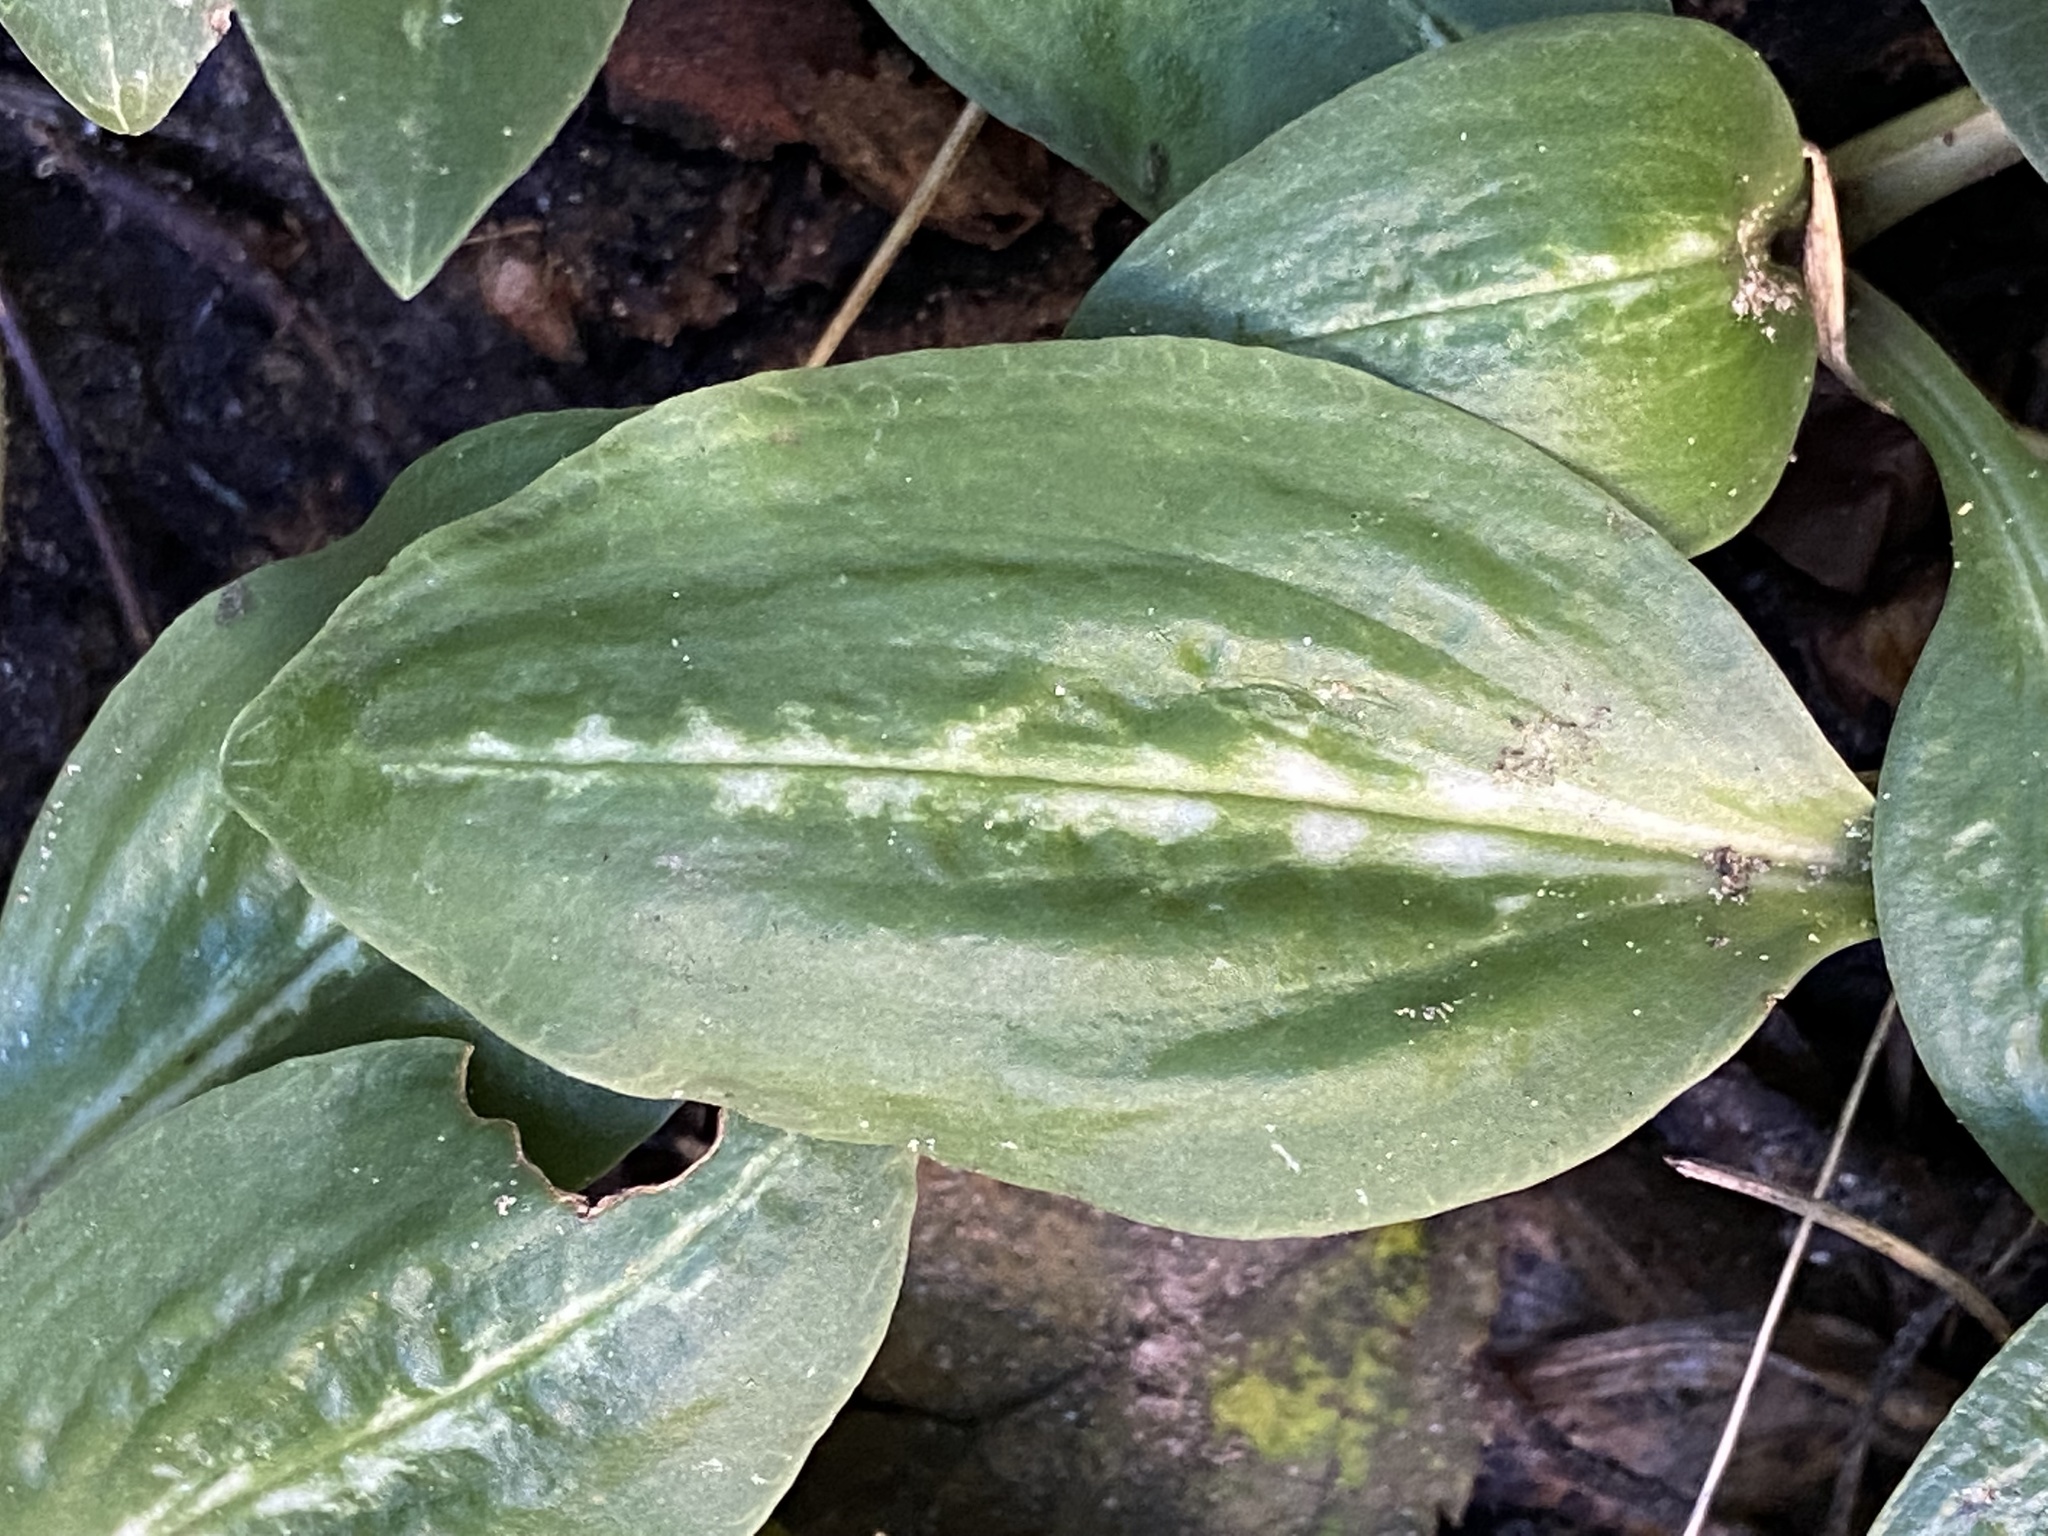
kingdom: Plantae
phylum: Tracheophyta
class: Liliopsida
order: Asparagales
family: Orchidaceae
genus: Goodyera
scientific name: Goodyera oblongifolia
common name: Giant rattlesnake-plantain
